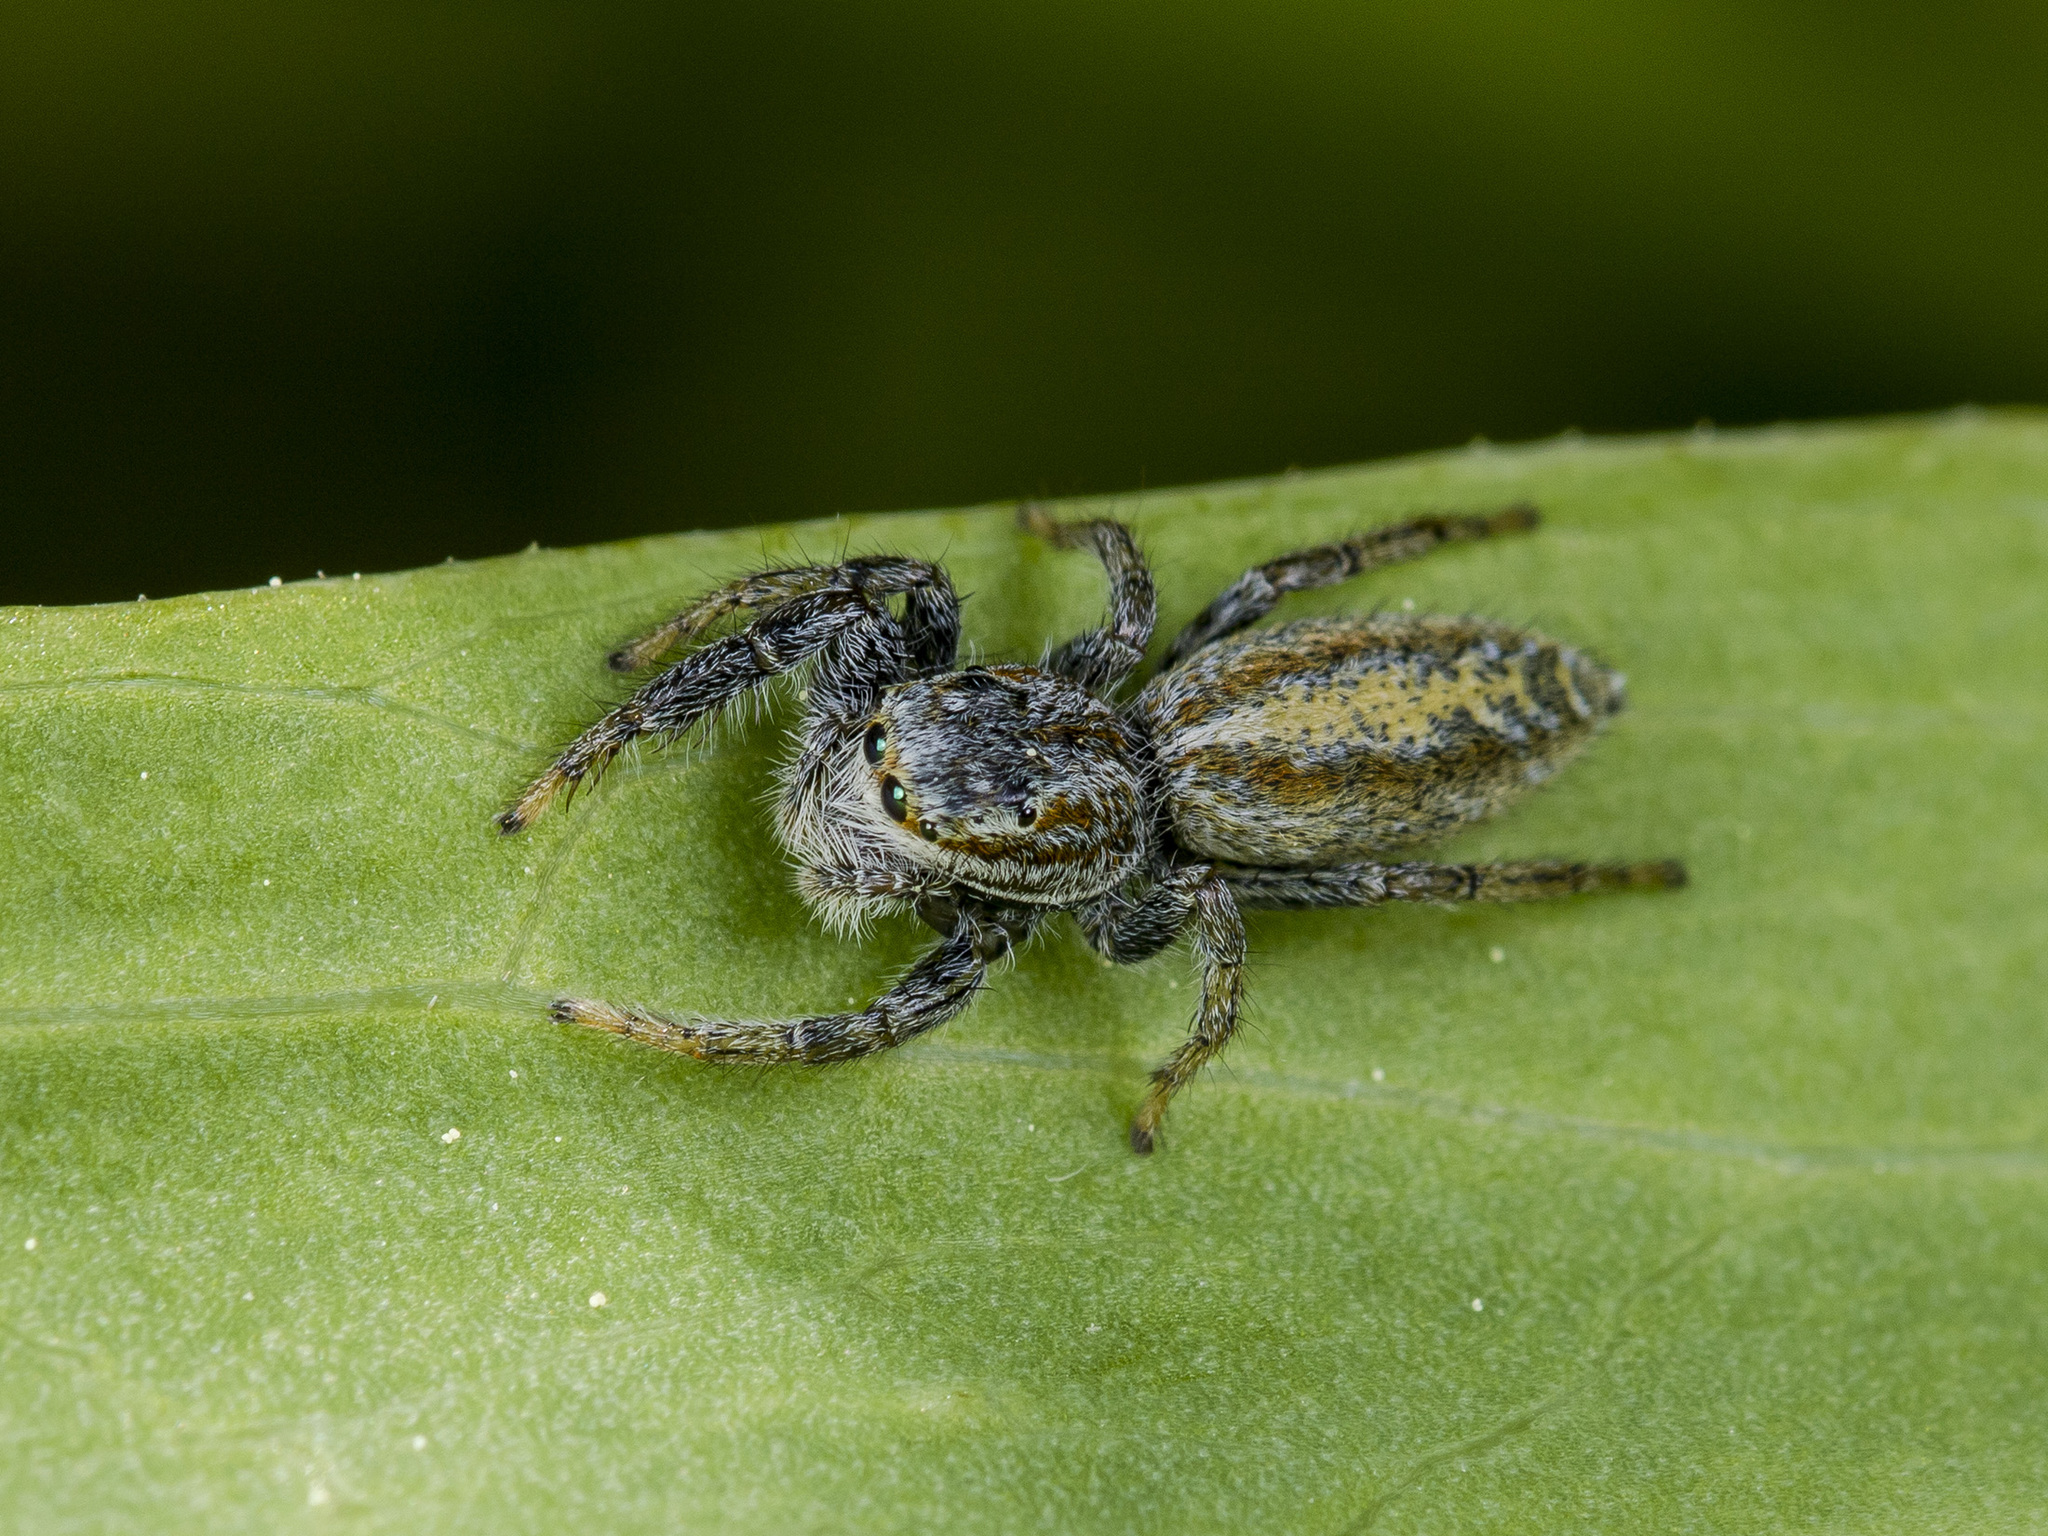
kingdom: Animalia
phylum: Arthropoda
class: Arachnida
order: Araneae
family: Salticidae
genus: Marpissa
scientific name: Marpissa pomatia
